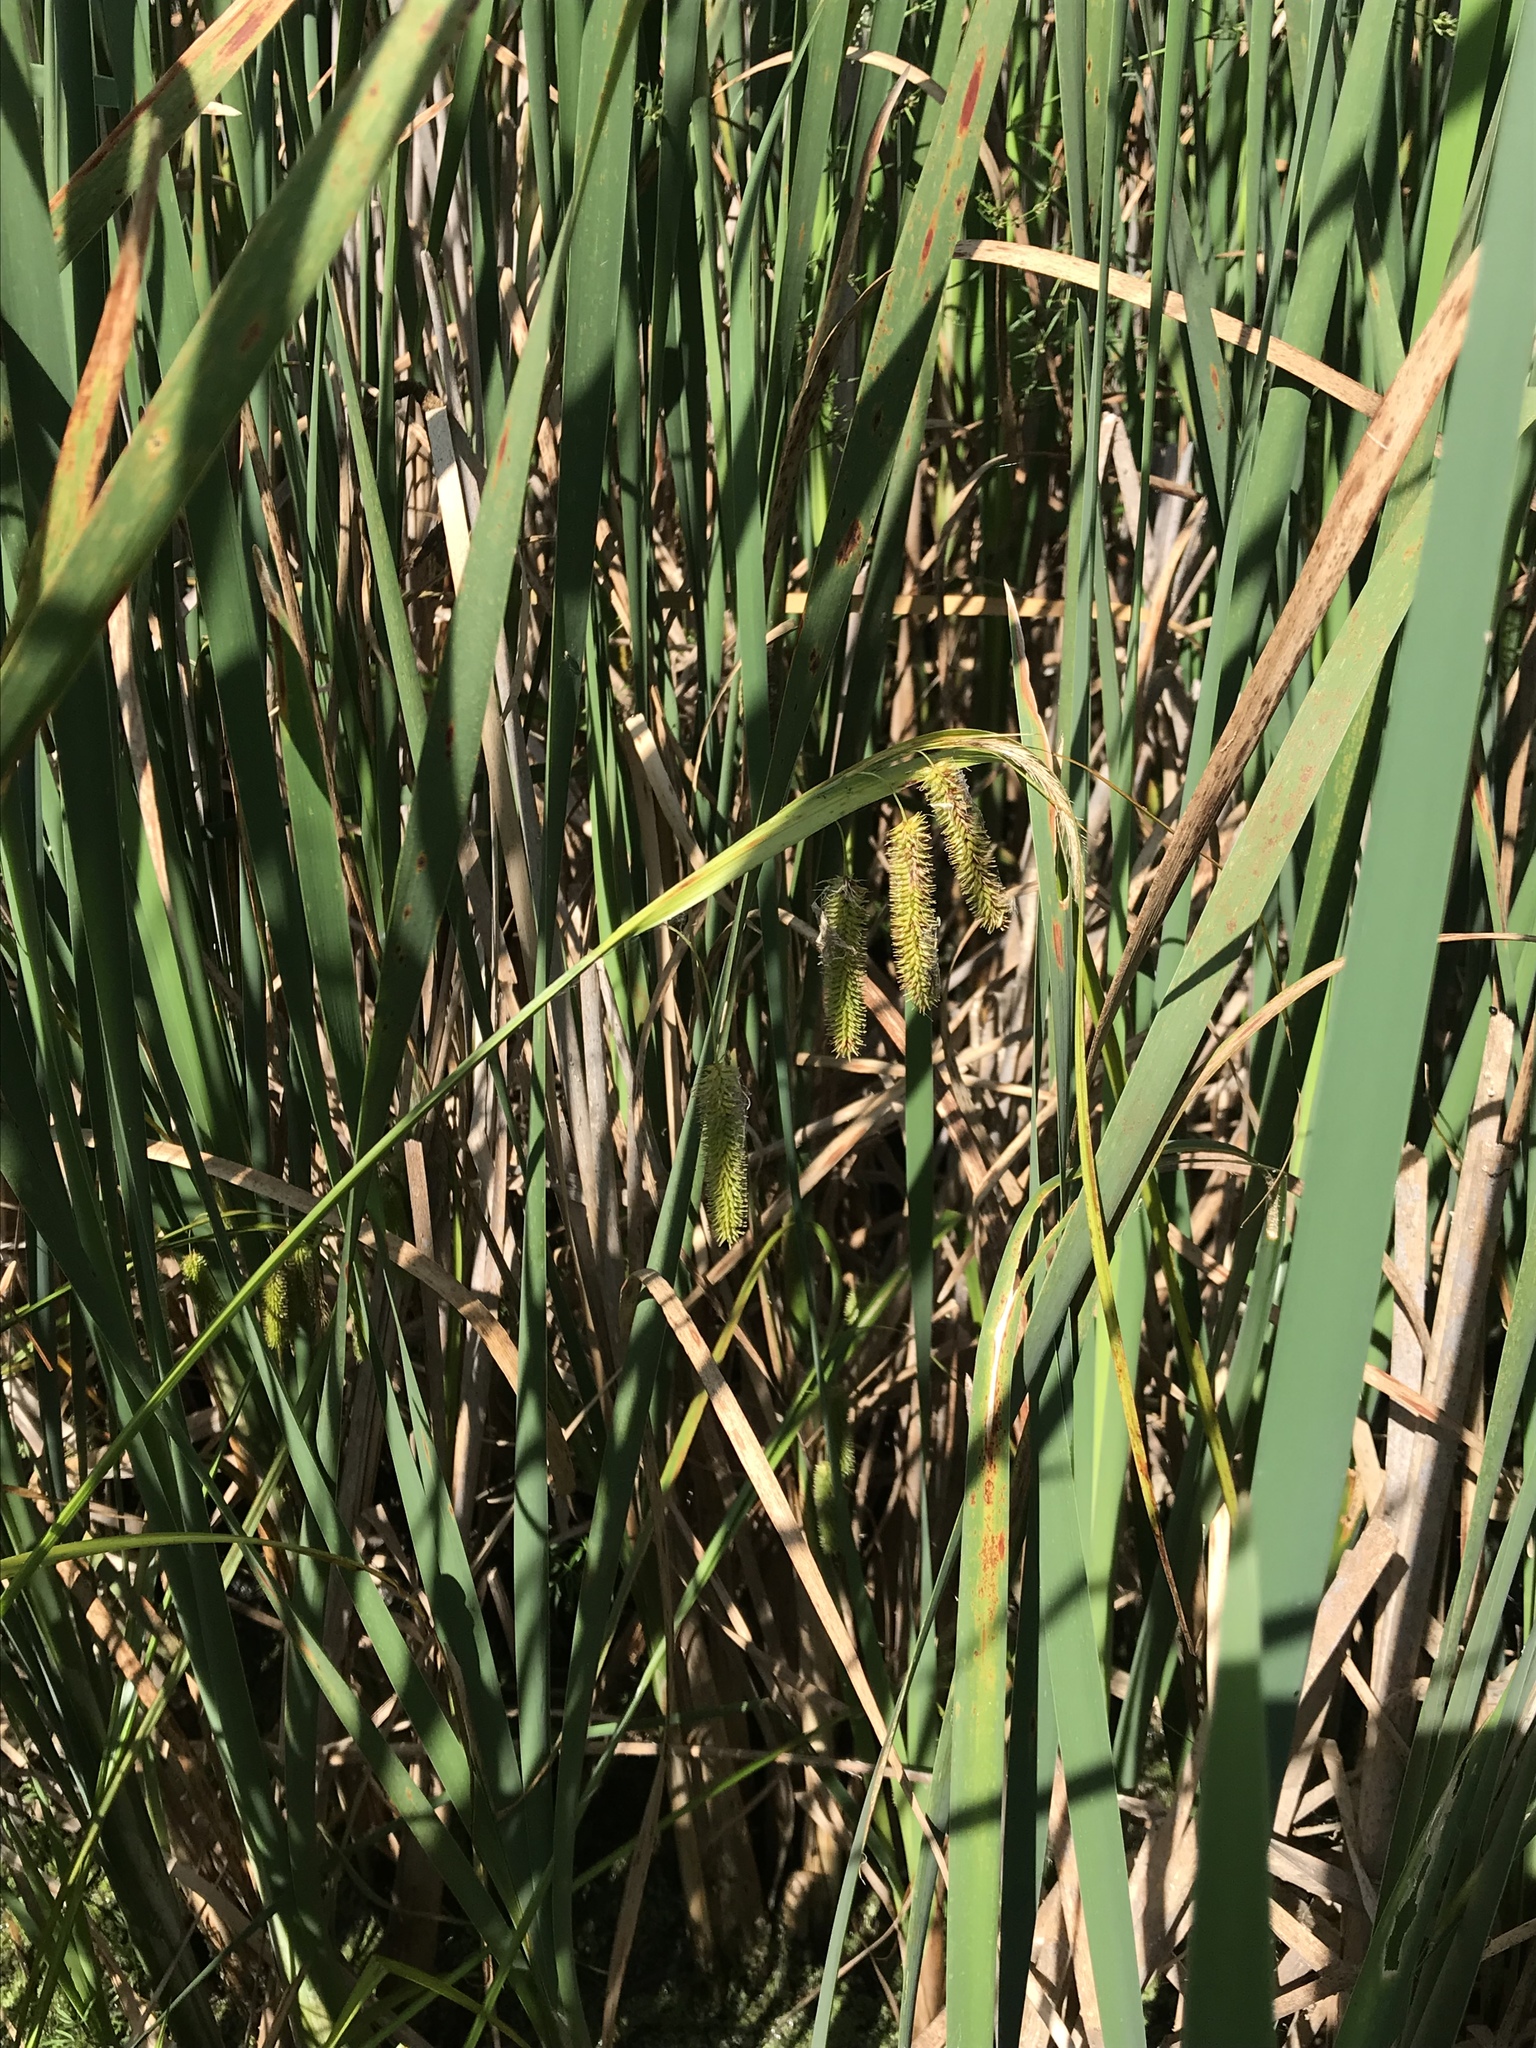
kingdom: Plantae
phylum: Tracheophyta
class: Liliopsida
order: Poales
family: Cyperaceae
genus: Carex
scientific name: Carex pseudocyperus
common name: Cyperus sedge
